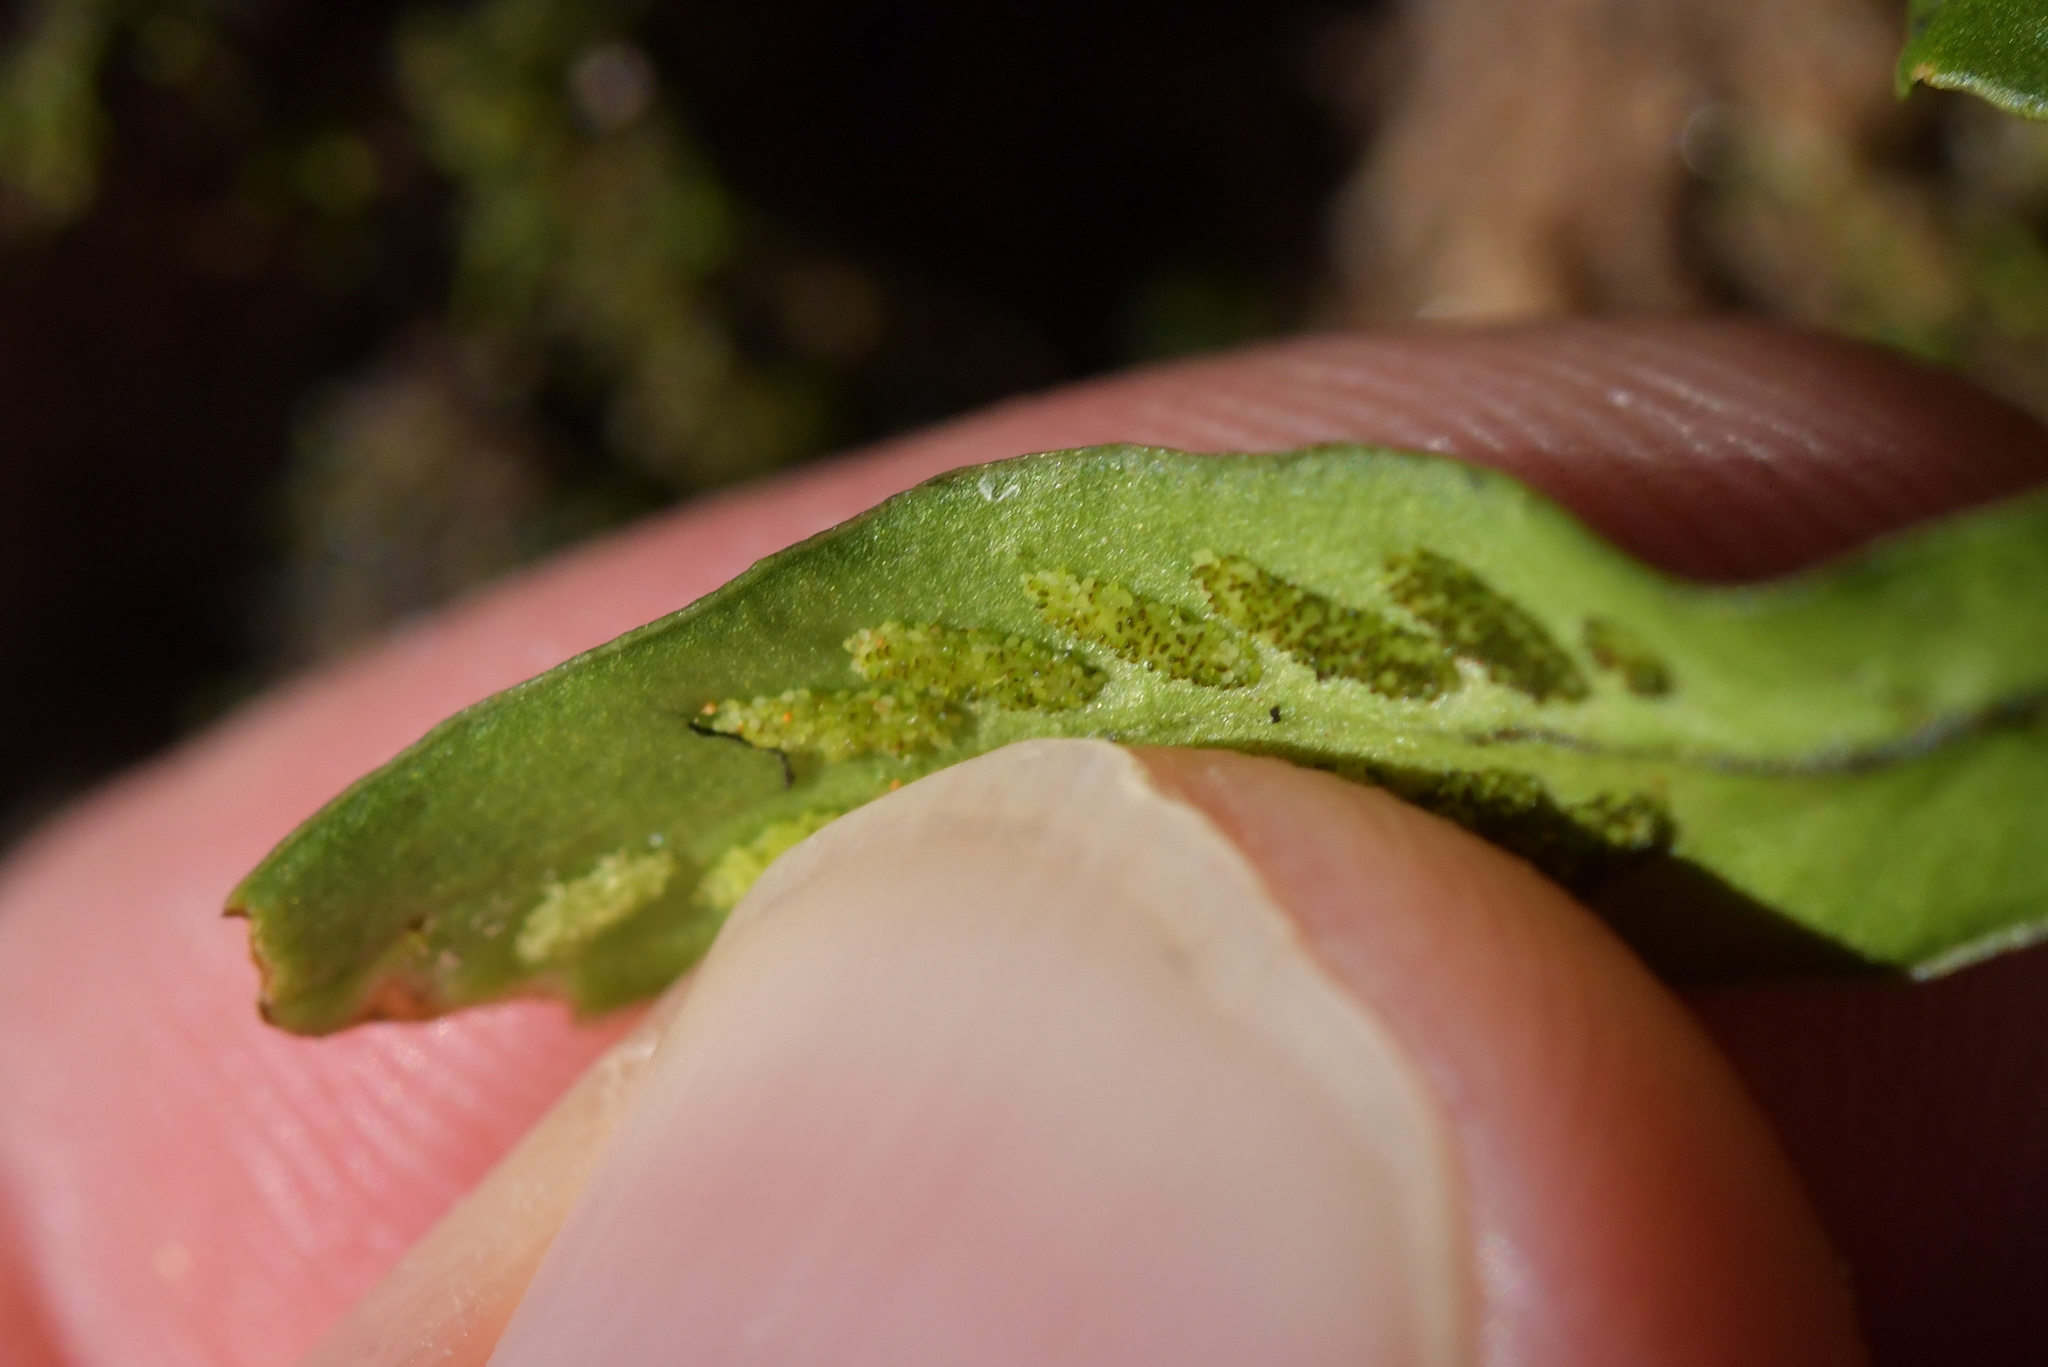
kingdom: Plantae
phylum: Tracheophyta
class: Polypodiopsida
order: Polypodiales
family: Polypodiaceae
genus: Notogrammitis
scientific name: Notogrammitis billardierei
